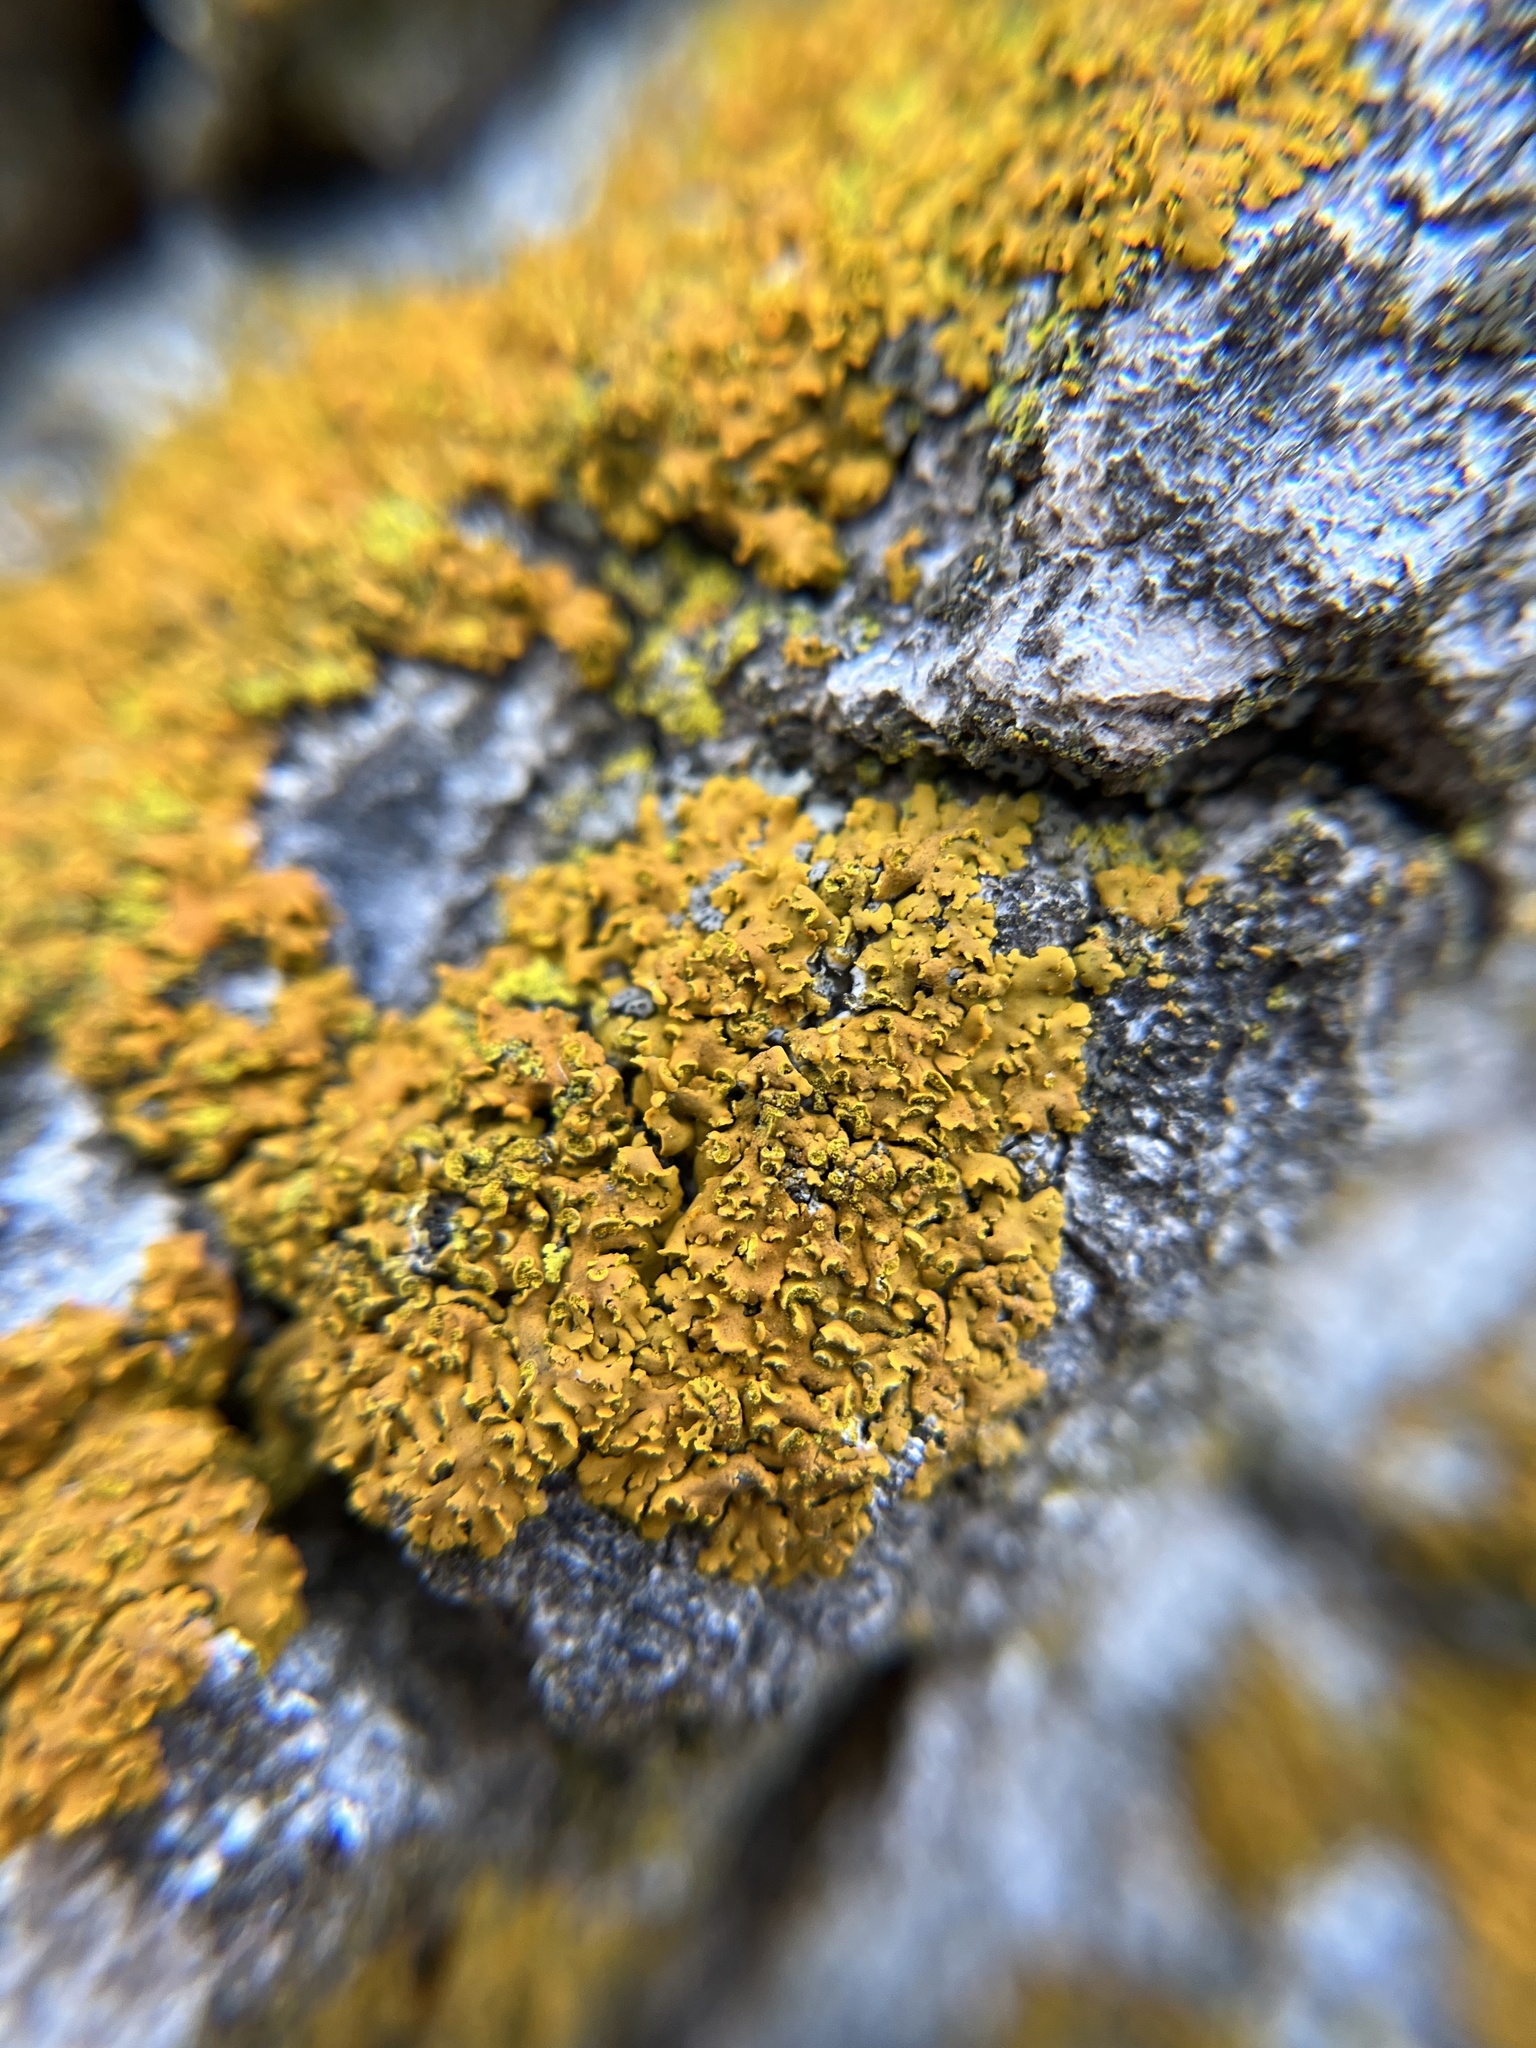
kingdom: Fungi
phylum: Ascomycota
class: Lecanoromycetes
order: Teloschistales
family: Teloschistaceae
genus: Oxneria
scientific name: Oxneria fallax
